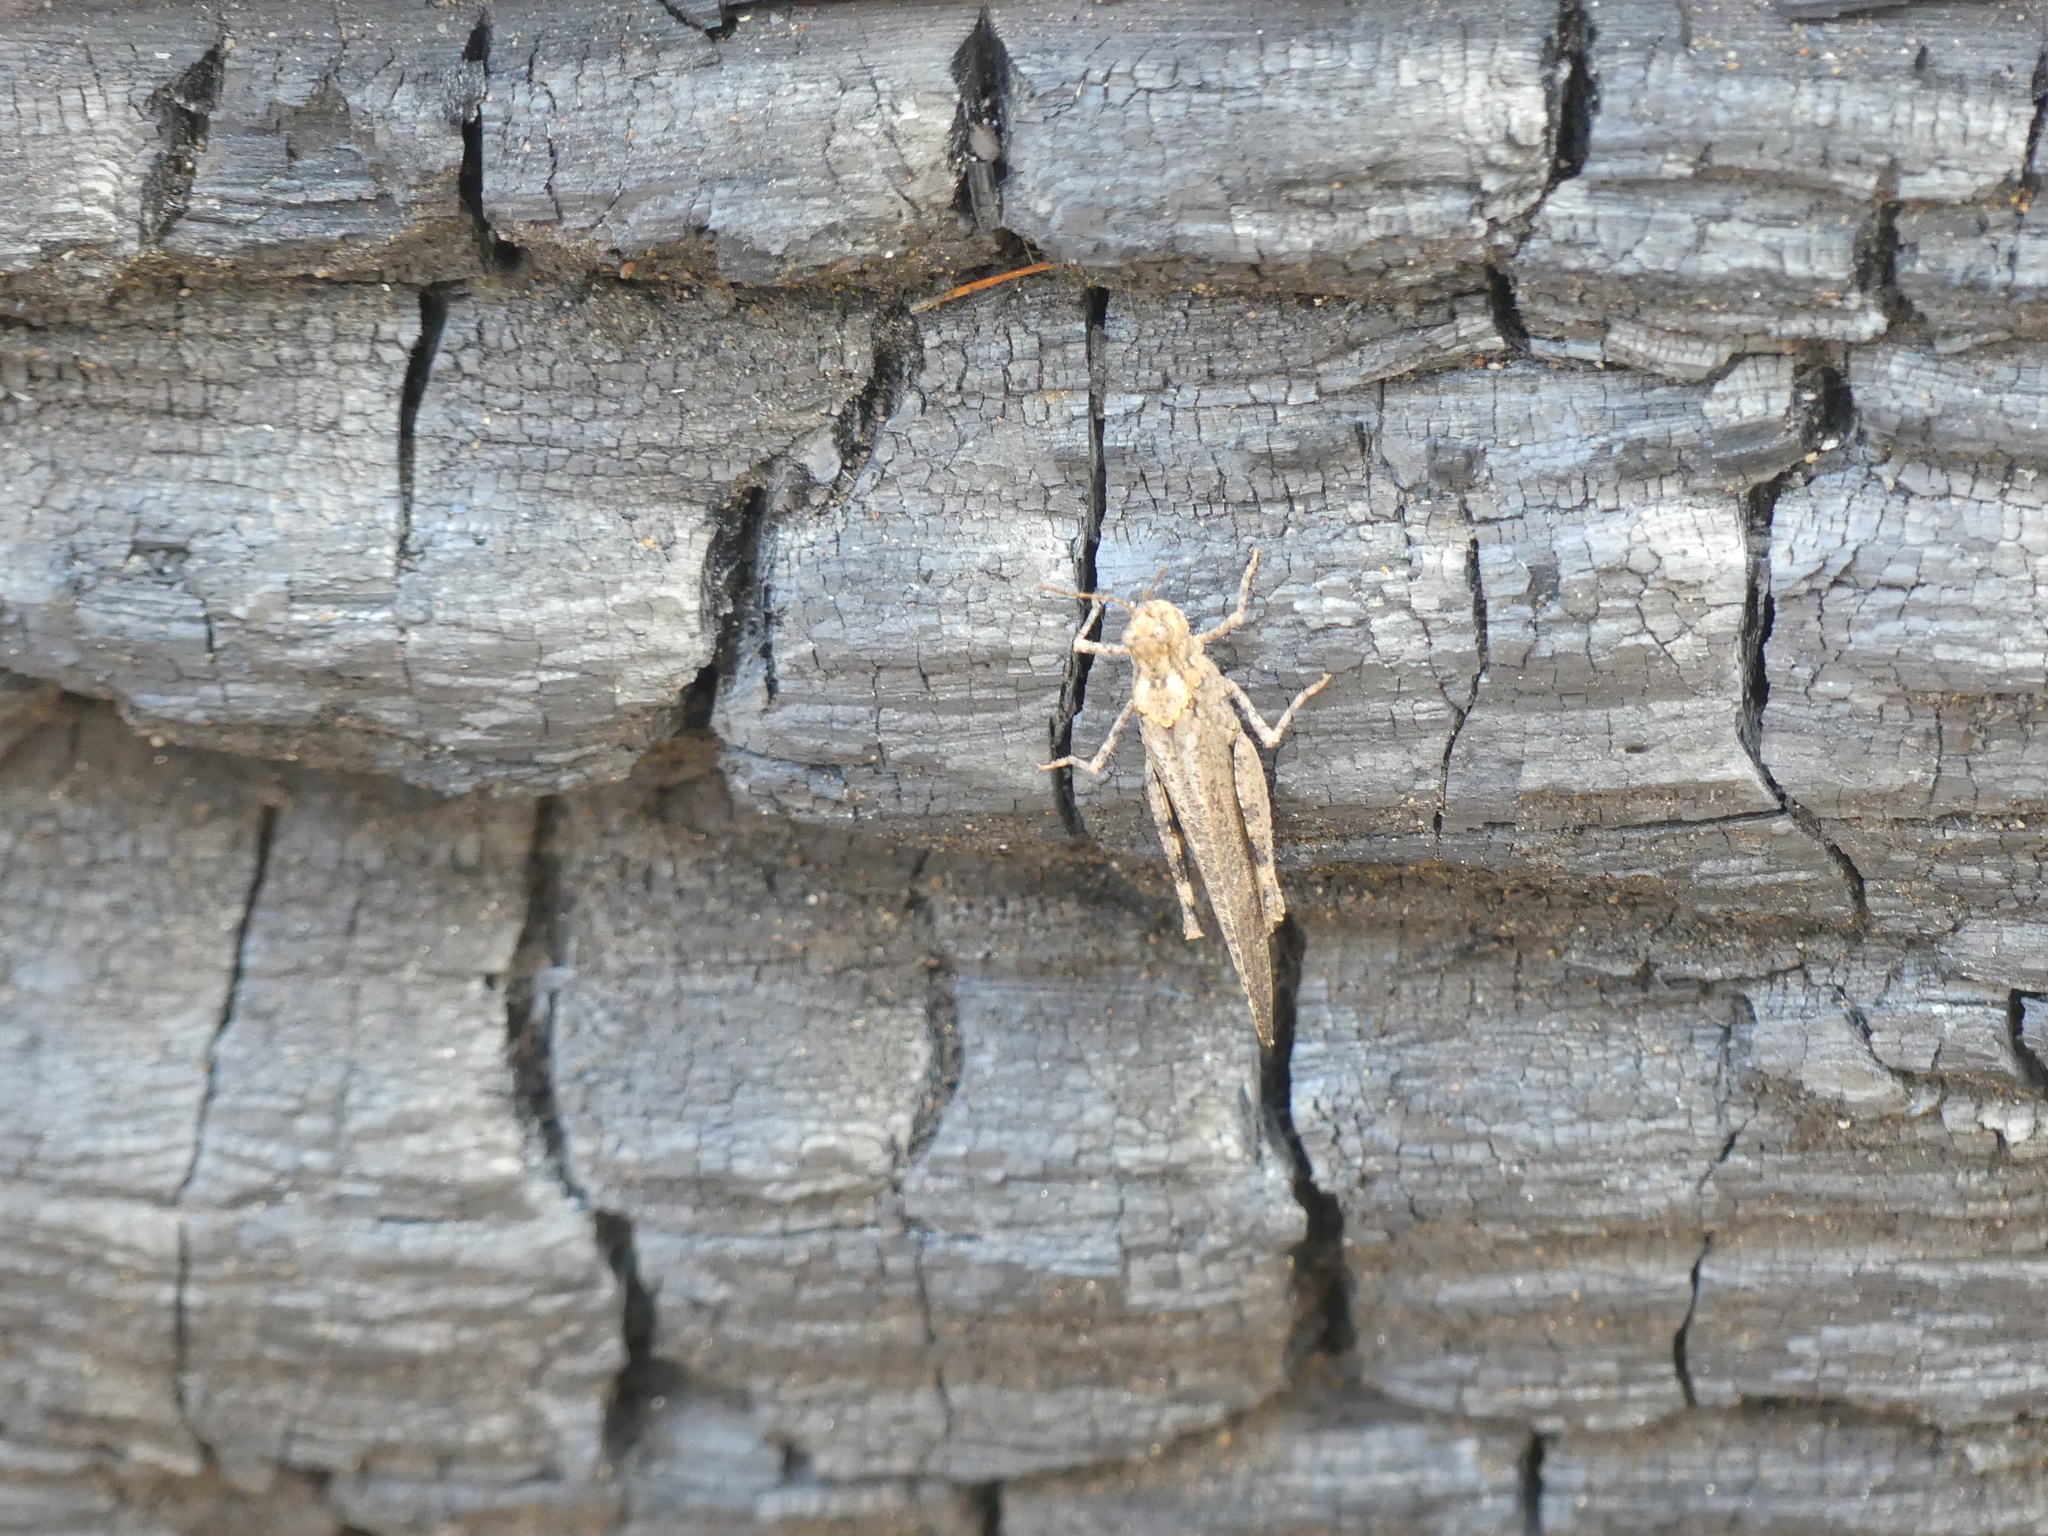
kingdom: Animalia
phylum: Arthropoda
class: Insecta
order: Orthoptera
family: Acrididae
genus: Trimerotropis
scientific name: Trimerotropis verruculata
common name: Crackling forest grasshopper
